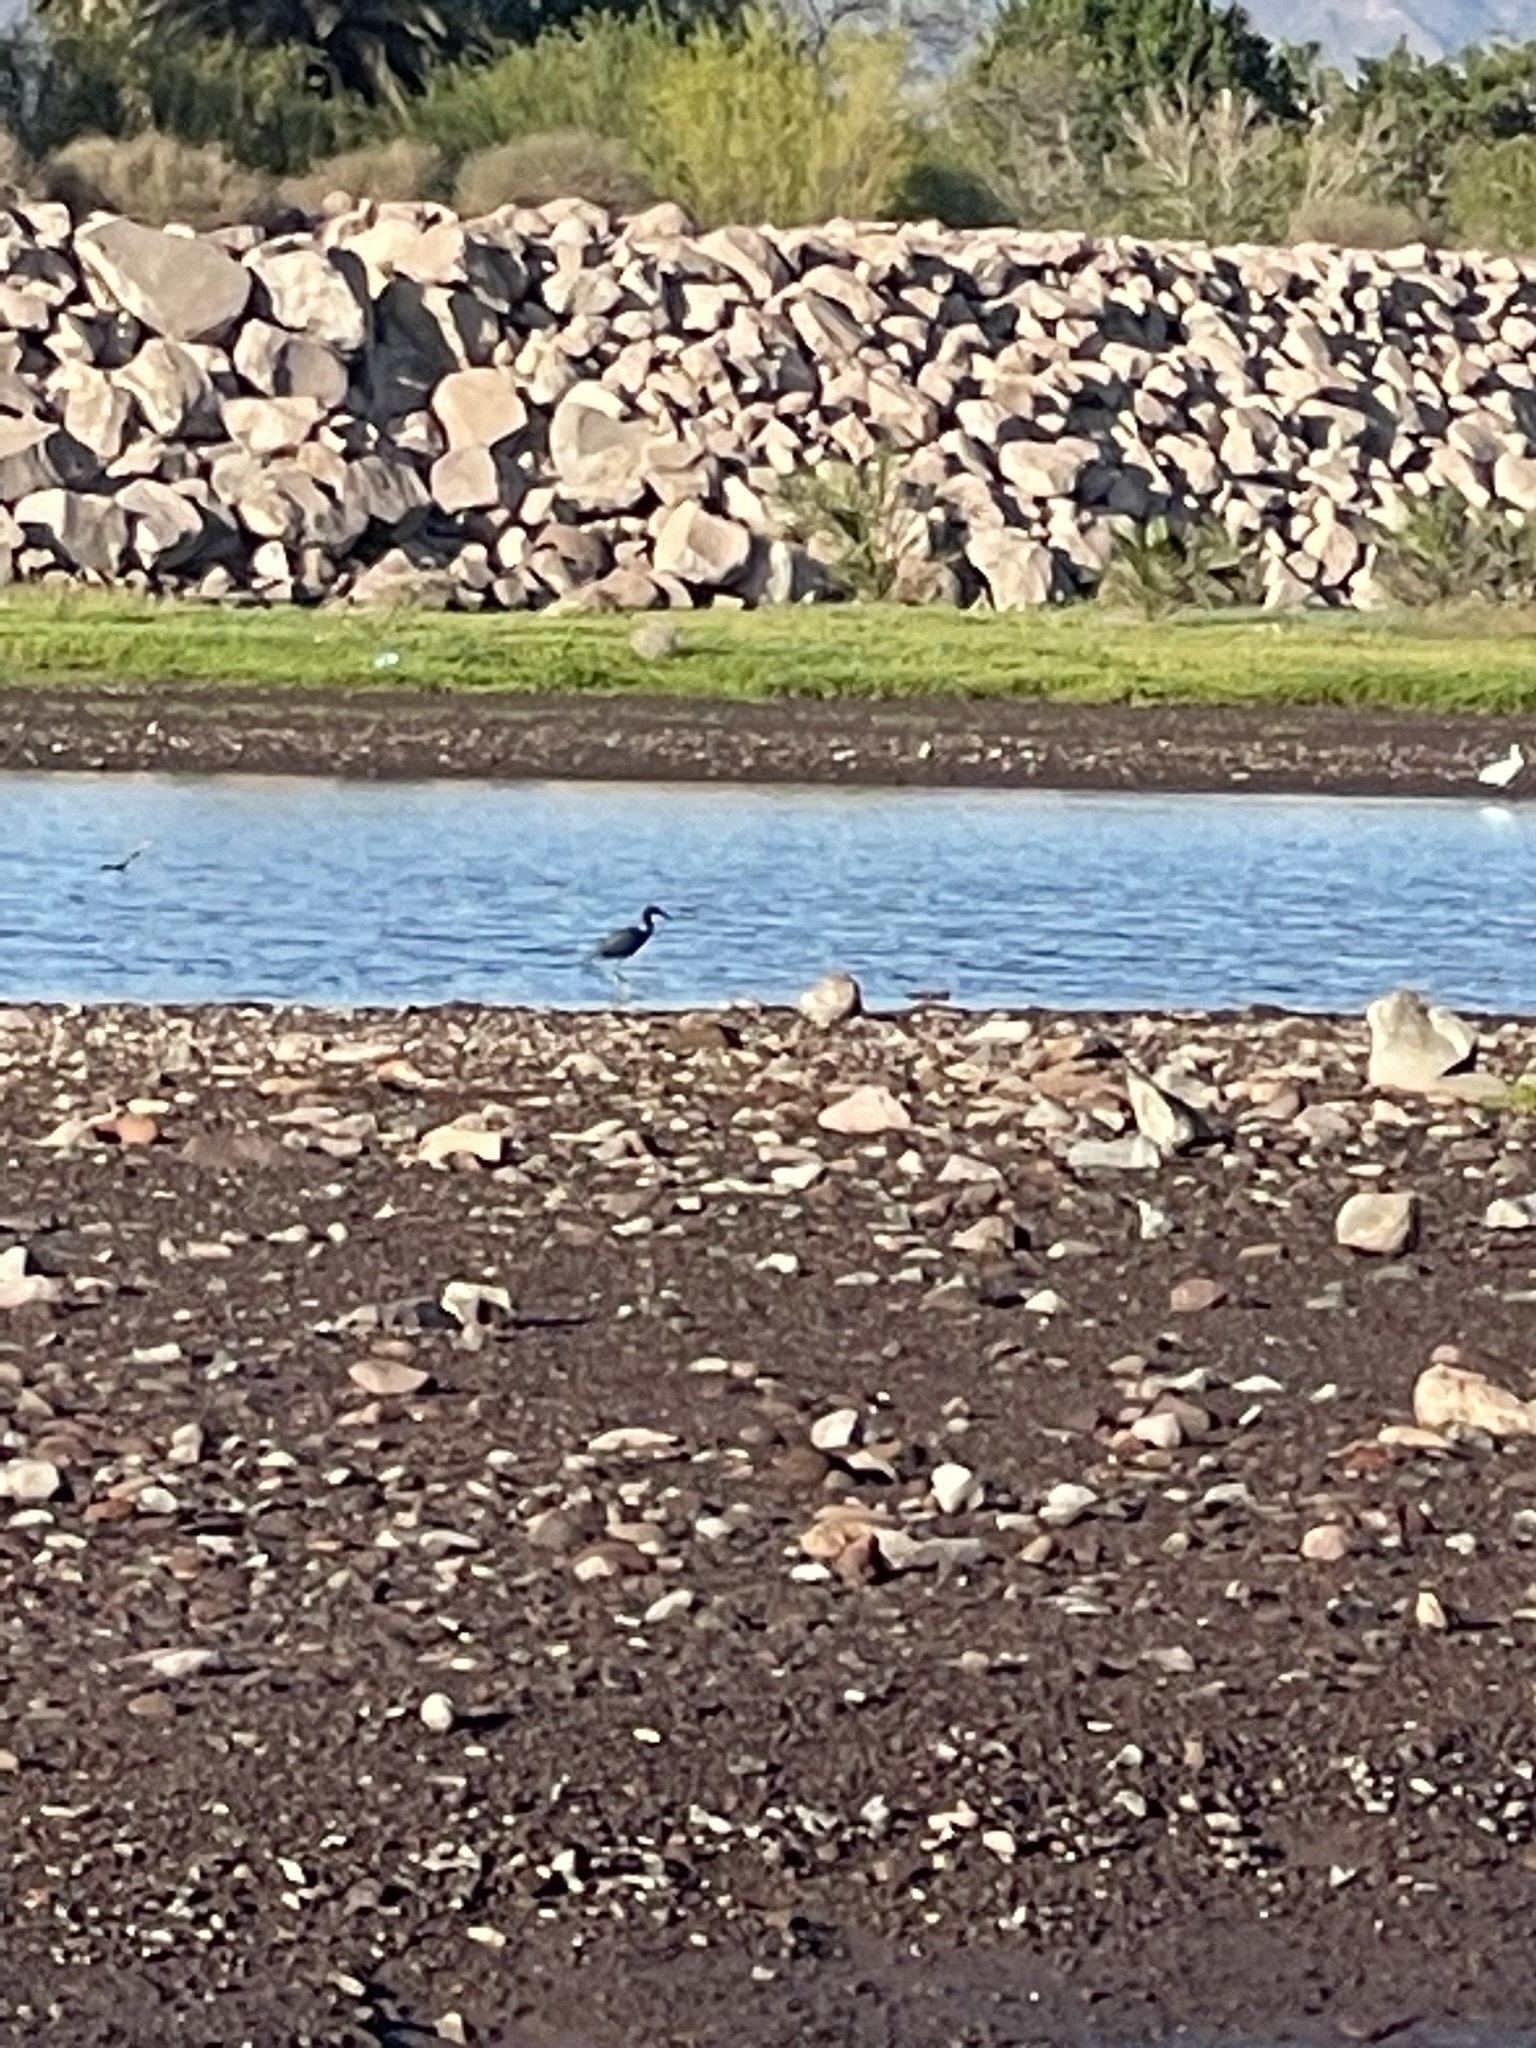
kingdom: Animalia
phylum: Chordata
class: Aves
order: Pelecaniformes
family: Ardeidae
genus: Egretta
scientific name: Egretta caerulea
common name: Little blue heron
